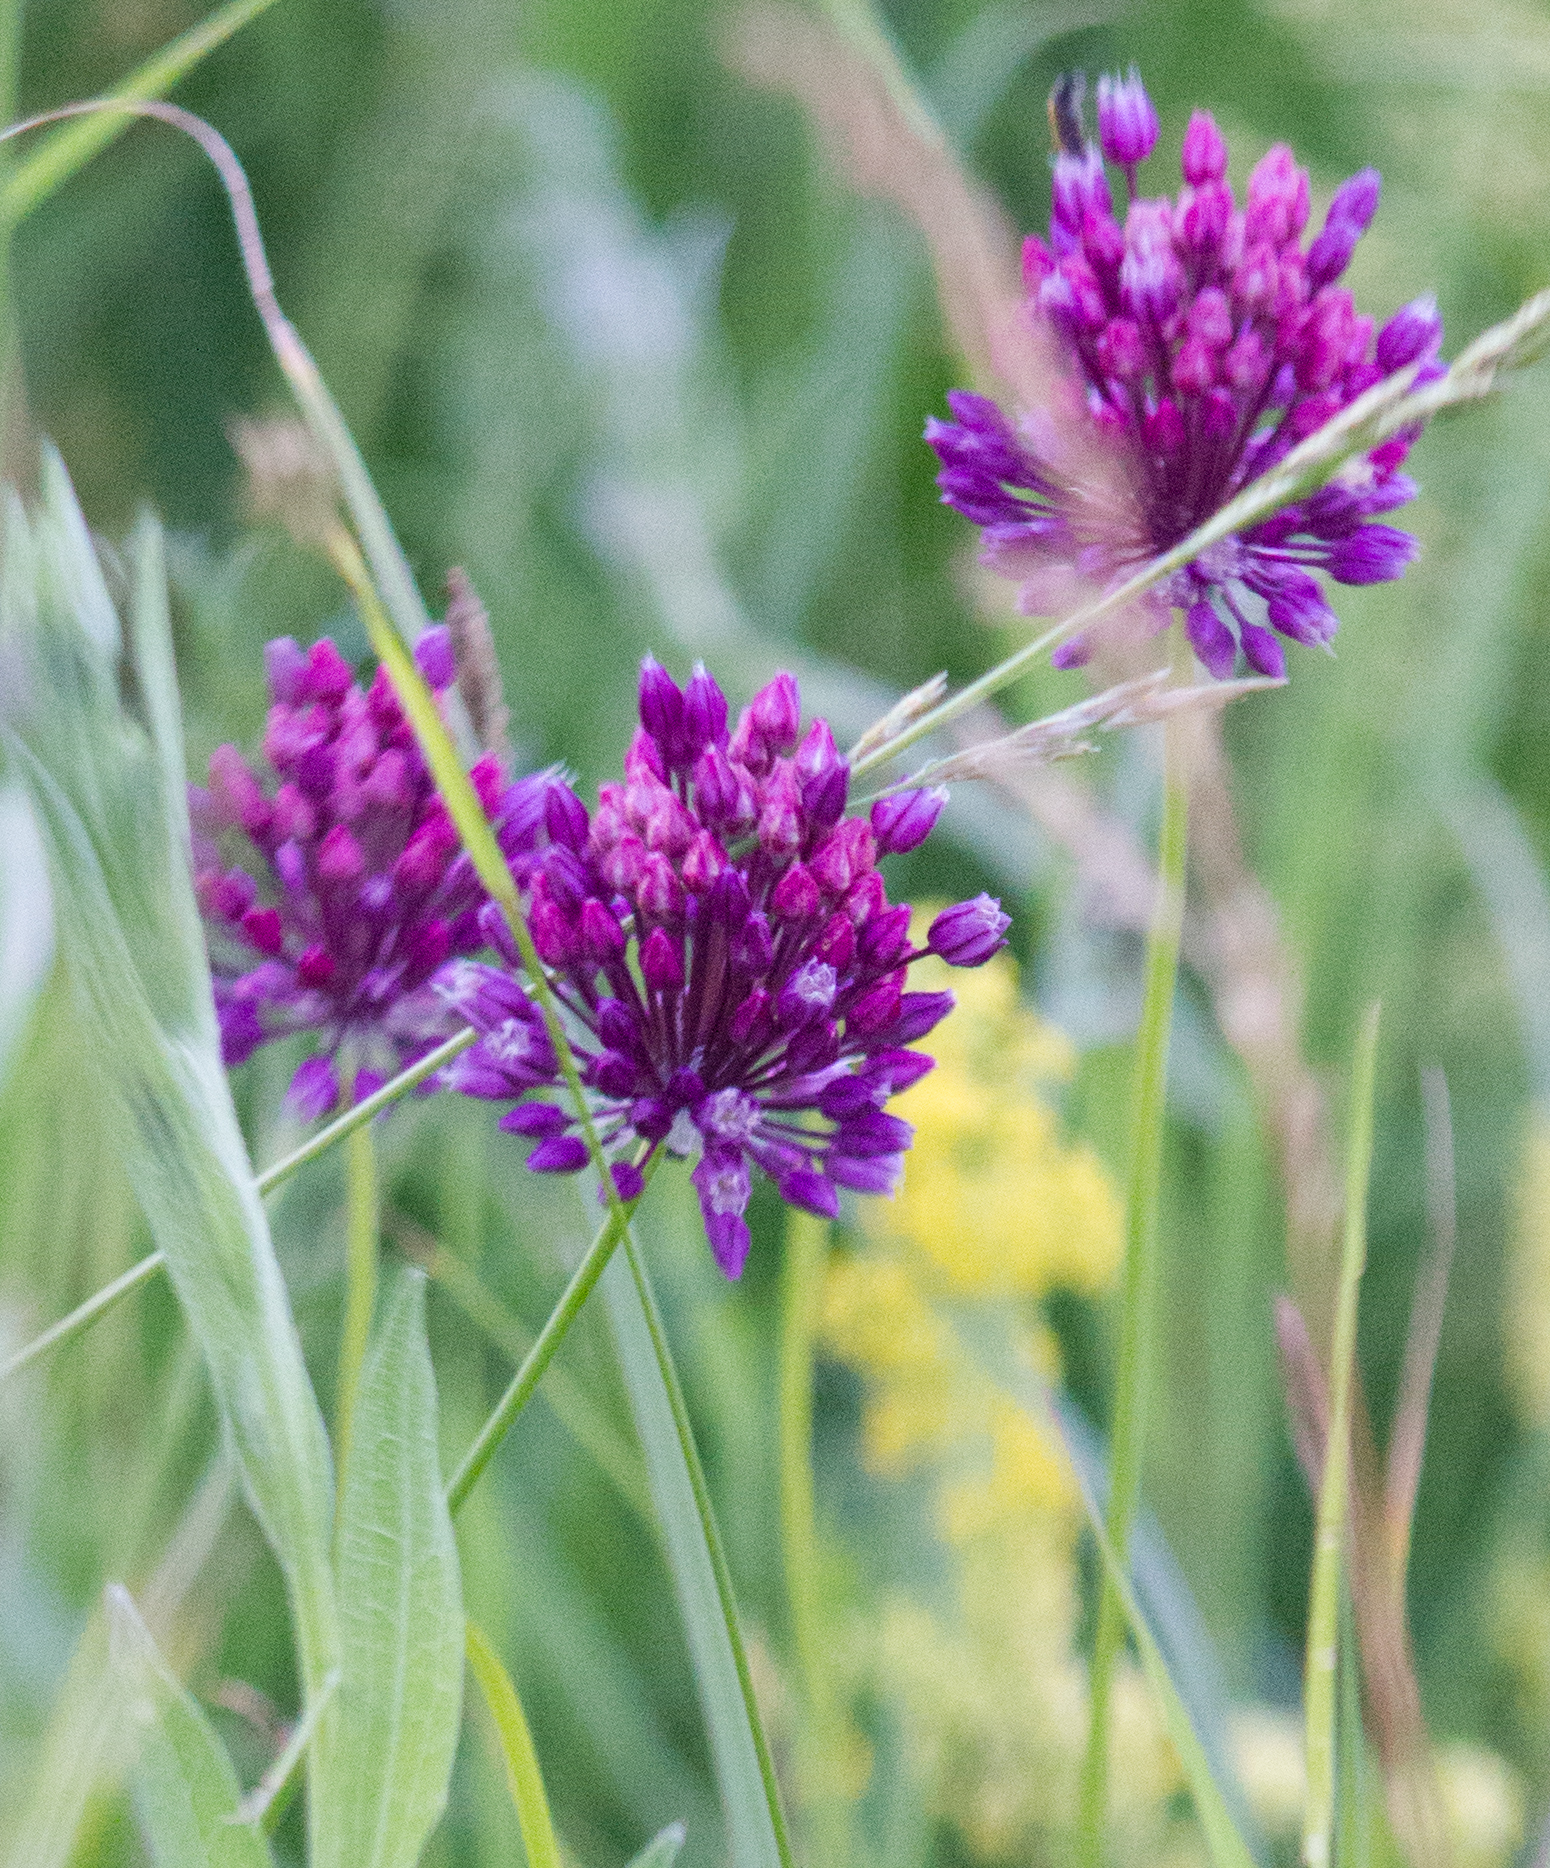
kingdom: Plantae
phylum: Tracheophyta
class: Liliopsida
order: Asparagales
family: Amaryllidaceae
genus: Allium
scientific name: Allium rotundum
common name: Sand leek
